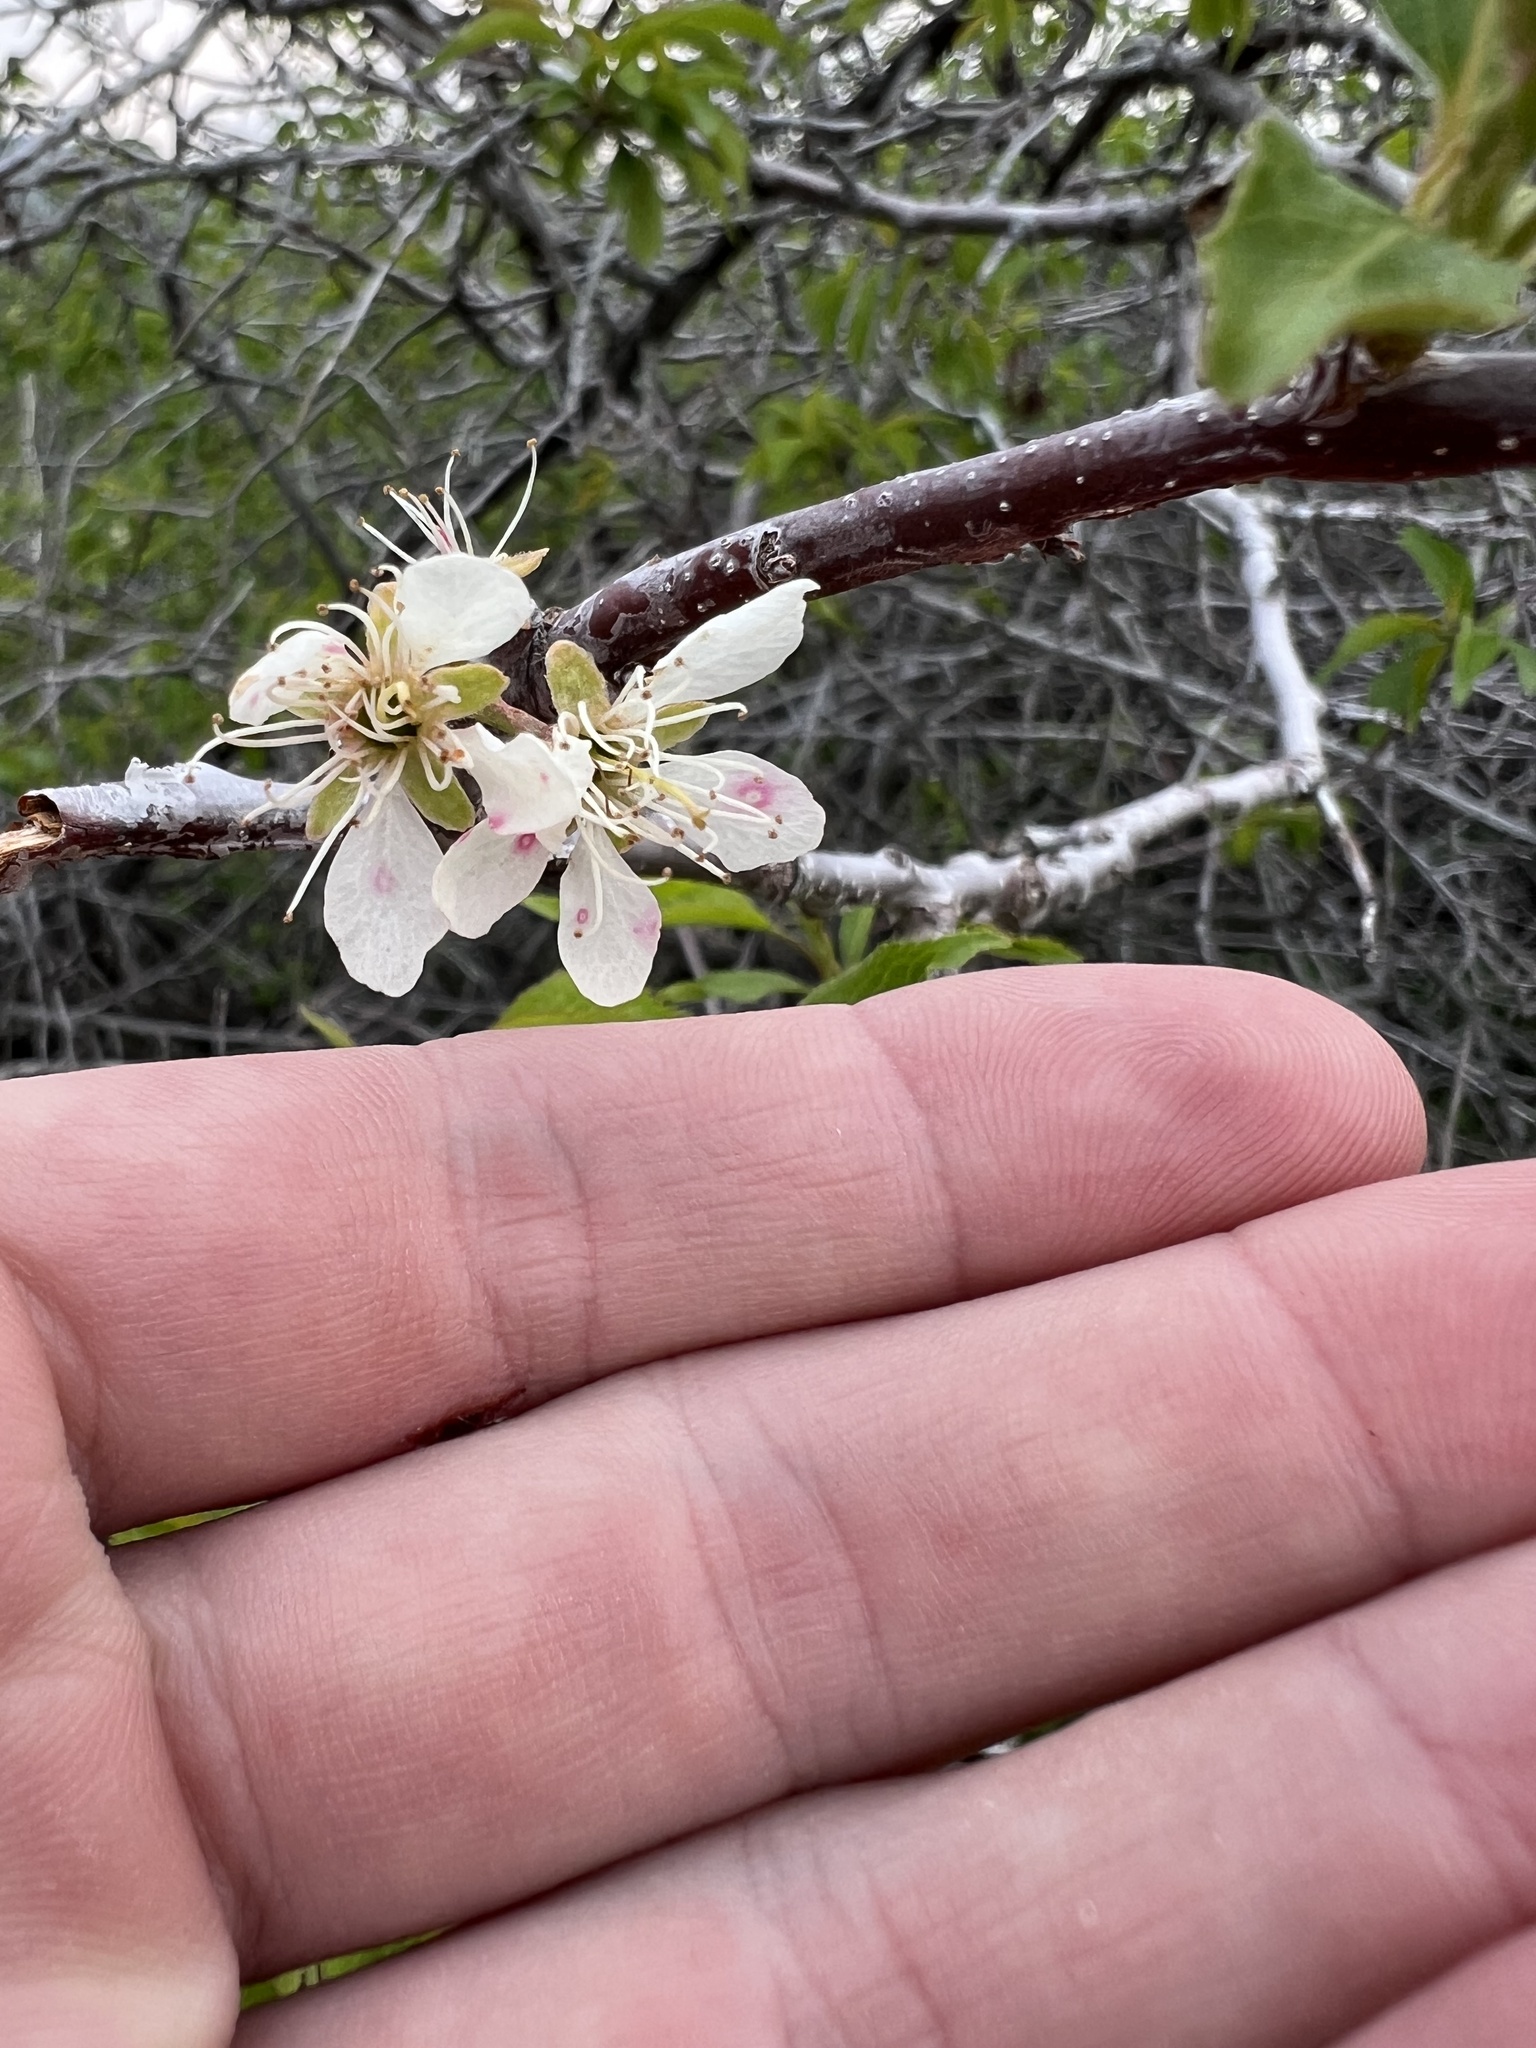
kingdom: Plantae
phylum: Tracheophyta
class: Magnoliopsida
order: Rosales
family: Rosaceae
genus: Prunus
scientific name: Prunus americana
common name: American plum
